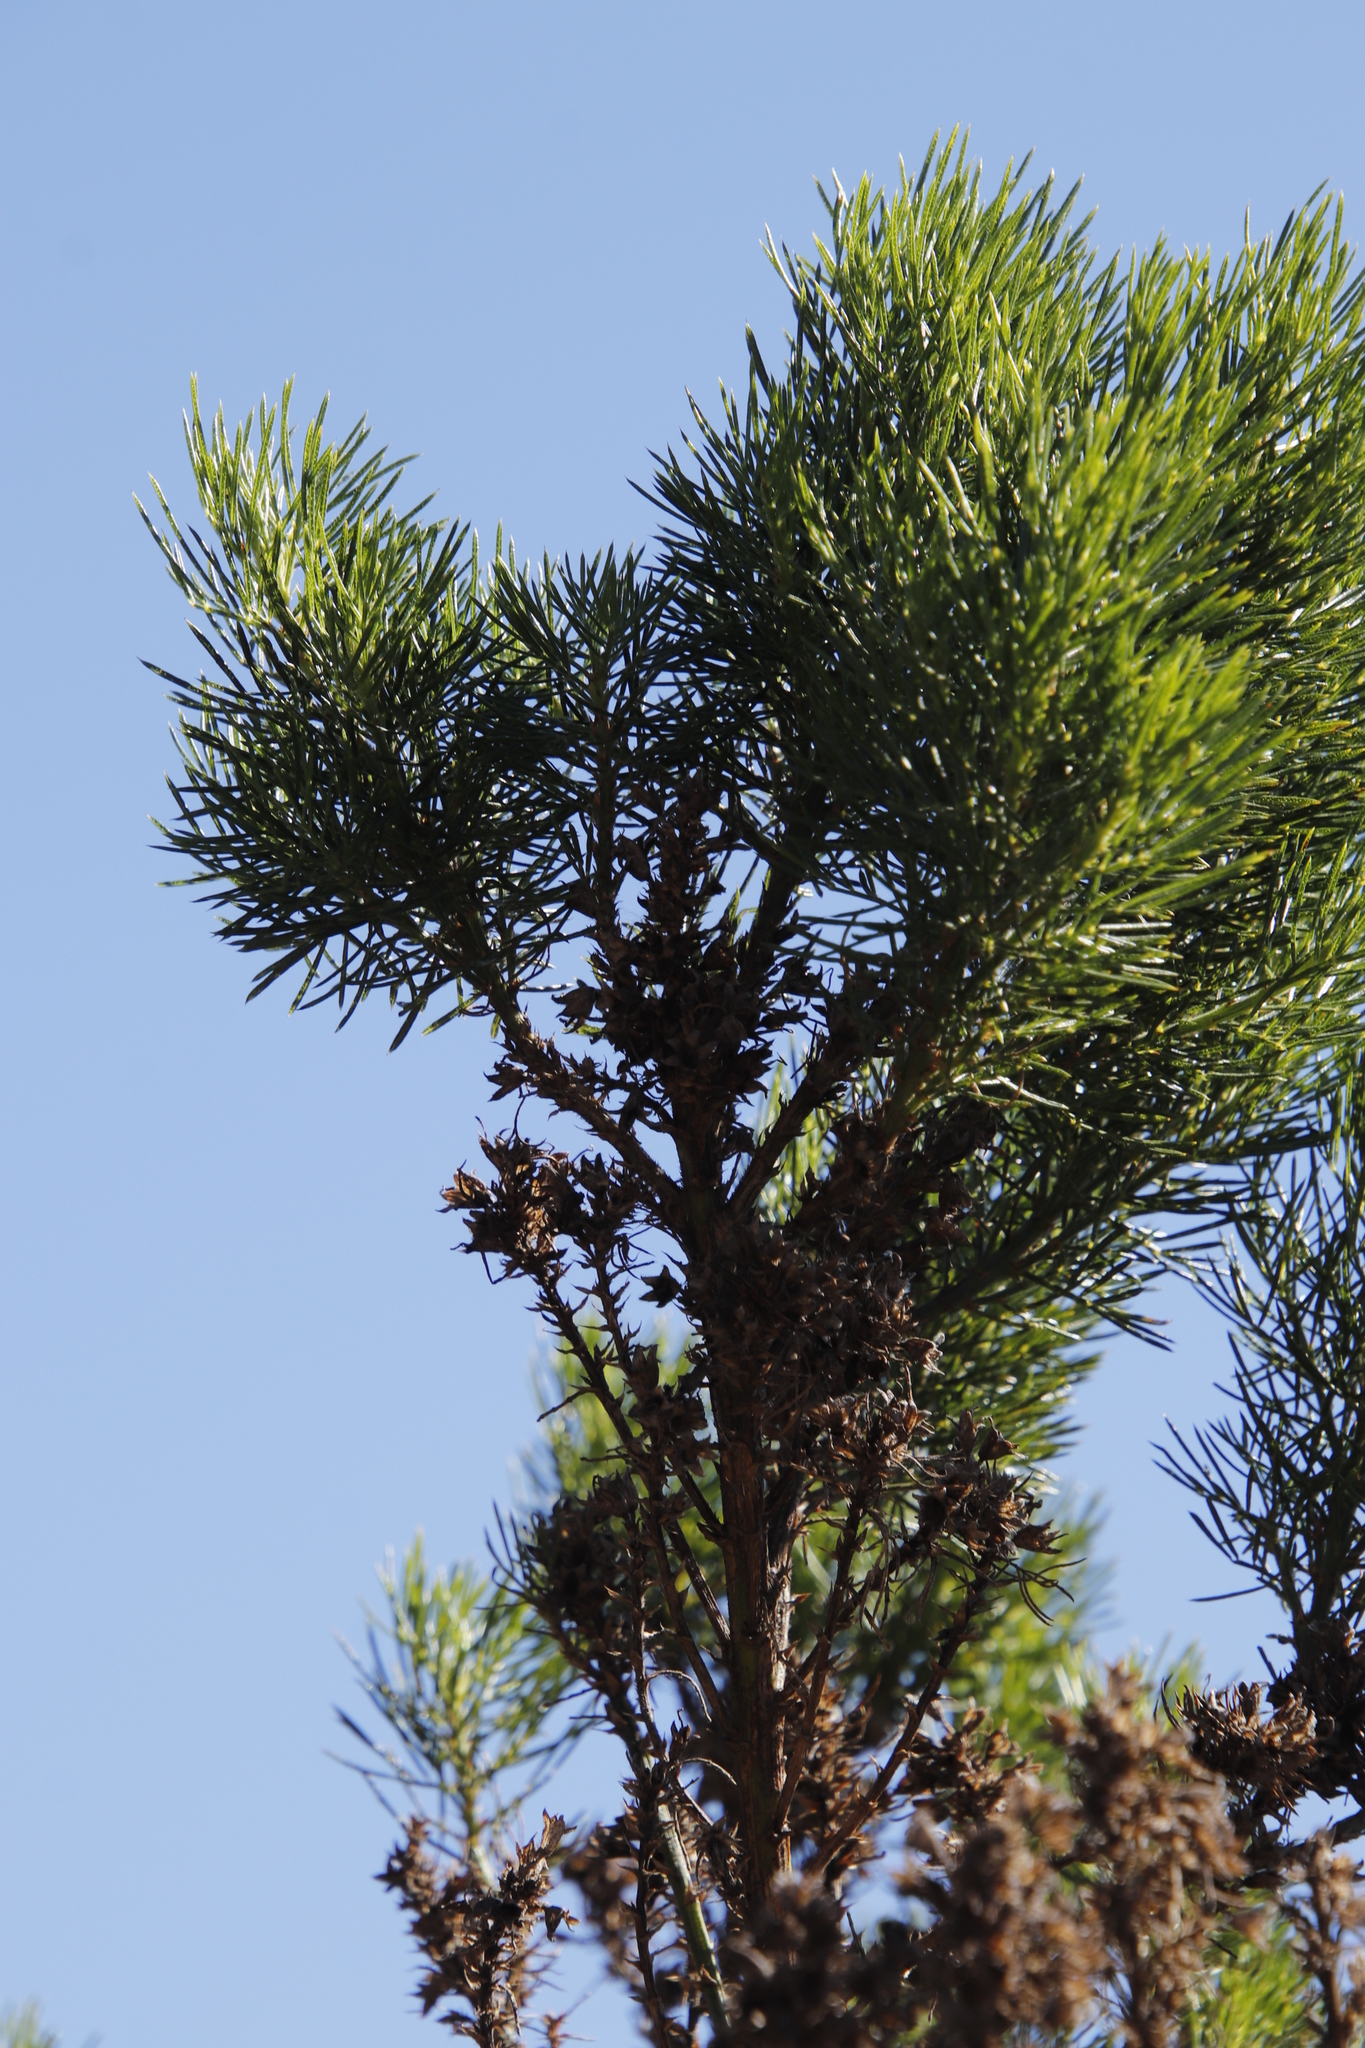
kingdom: Plantae
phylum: Tracheophyta
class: Magnoliopsida
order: Fabales
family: Fabaceae
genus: Psoralea
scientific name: Psoralea pinnata
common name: African scurfpea
